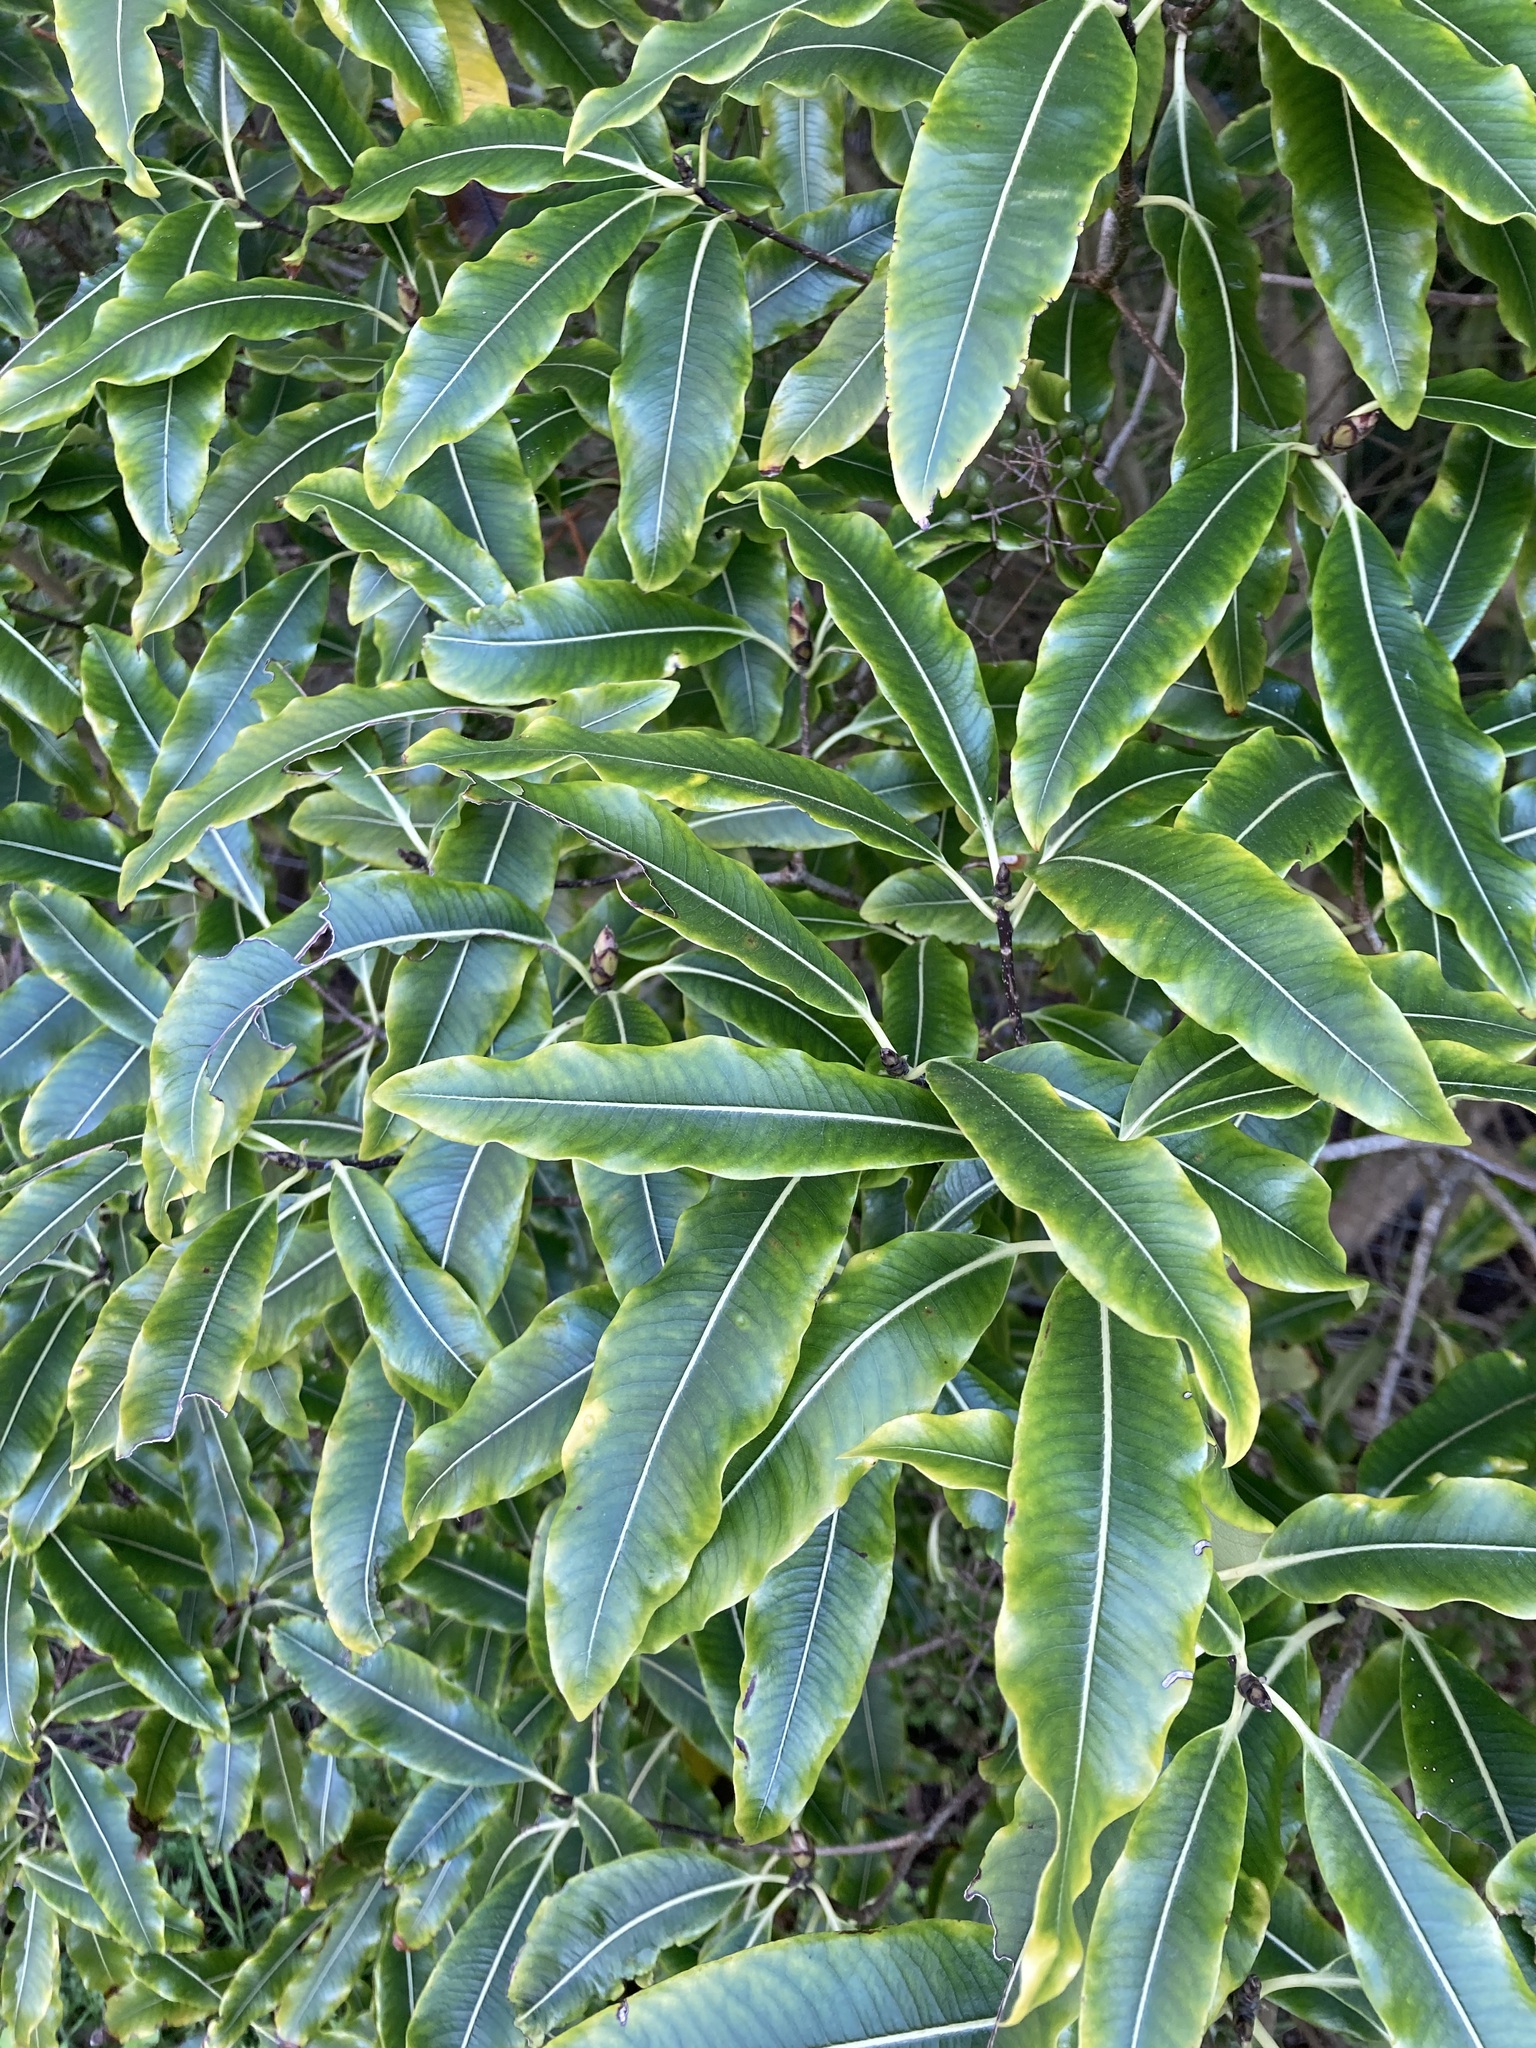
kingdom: Plantae
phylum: Tracheophyta
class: Magnoliopsida
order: Apiales
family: Pittosporaceae
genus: Pittosporum
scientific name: Pittosporum eugenioides
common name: Lemonwood
